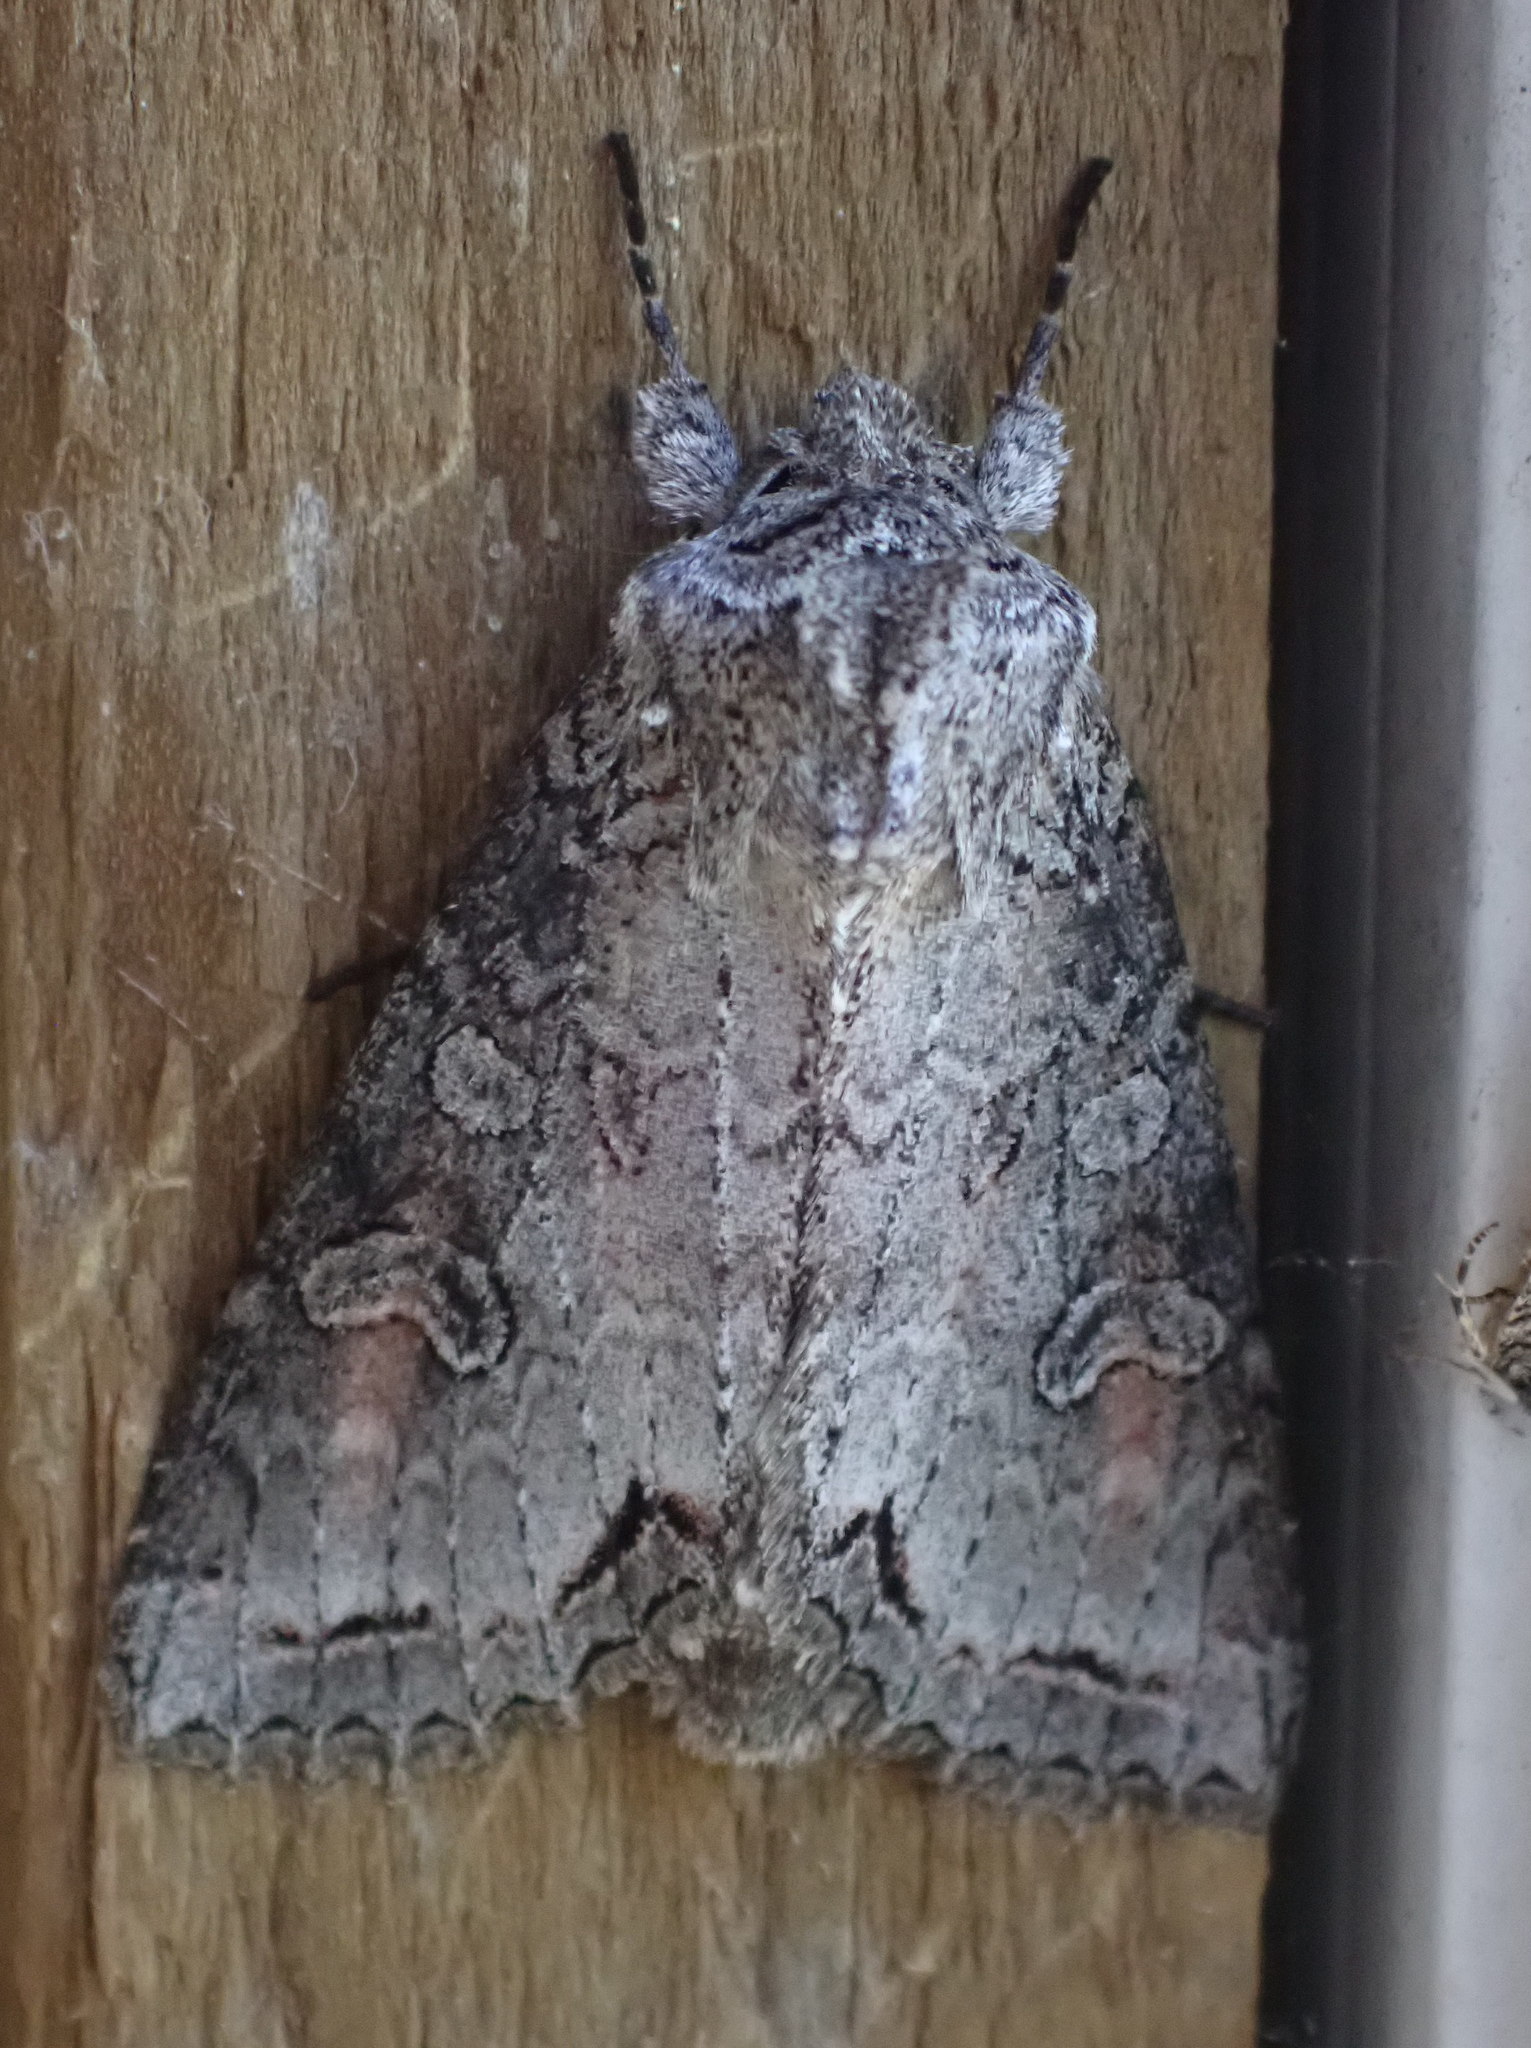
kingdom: Animalia
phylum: Arthropoda
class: Insecta
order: Lepidoptera
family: Noctuidae
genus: Polia
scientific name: Polia purpurissata
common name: Purple arches moth
